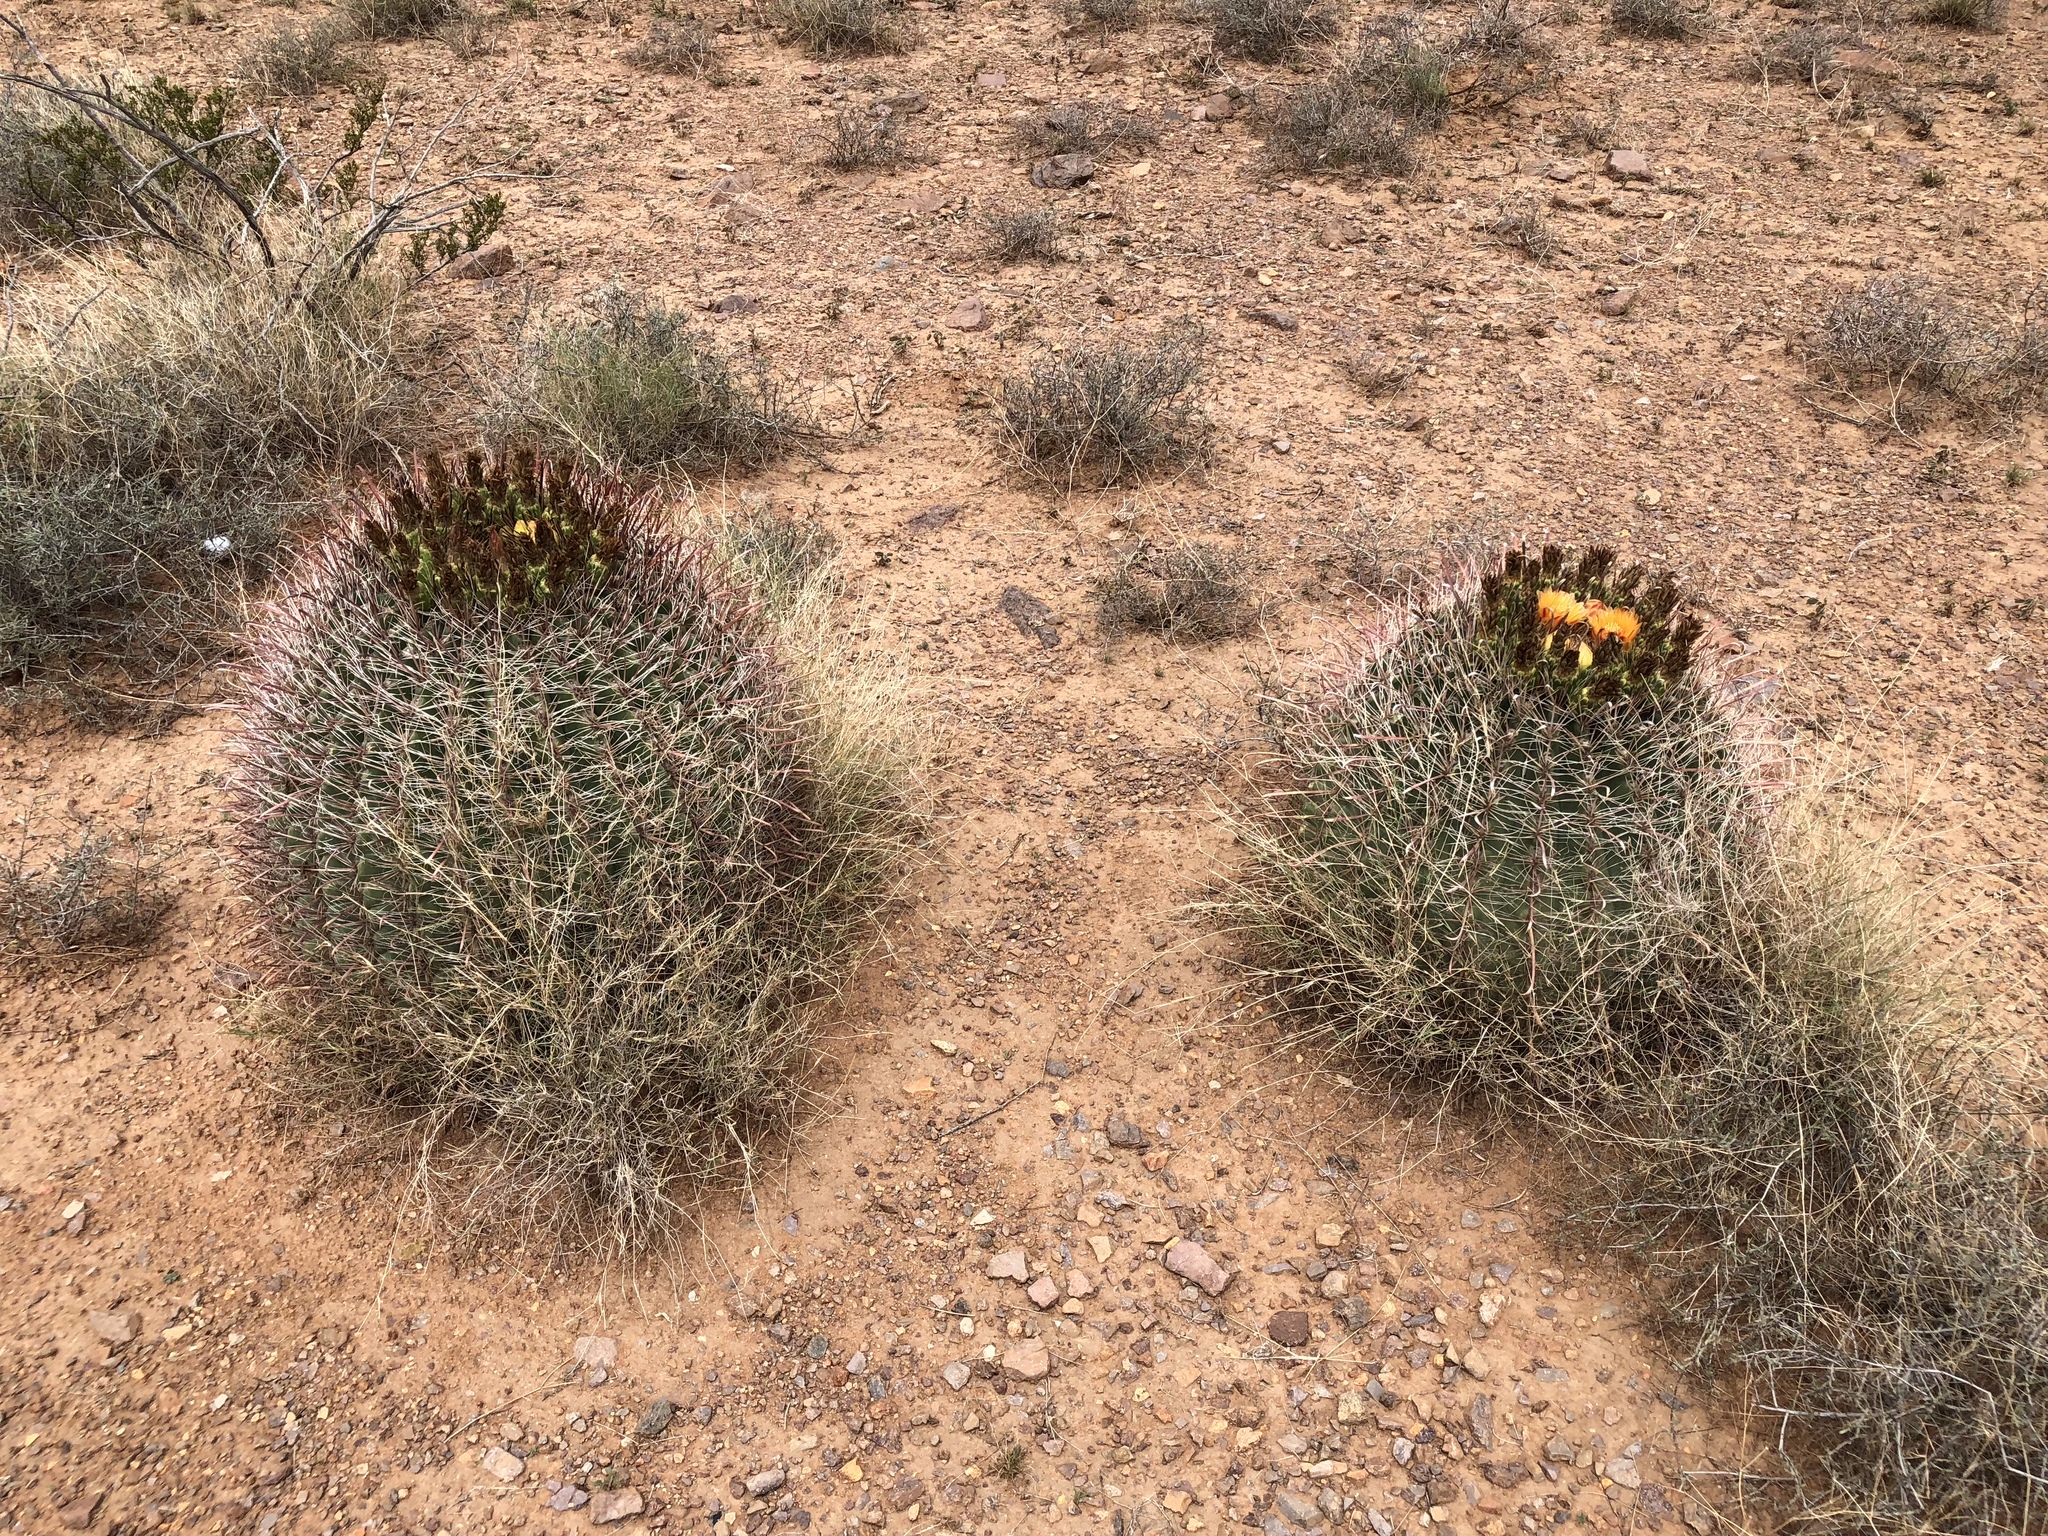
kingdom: Plantae
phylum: Tracheophyta
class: Magnoliopsida
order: Caryophyllales
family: Cactaceae
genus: Ferocactus
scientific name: Ferocactus wislizeni
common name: Candy barrel cactus
